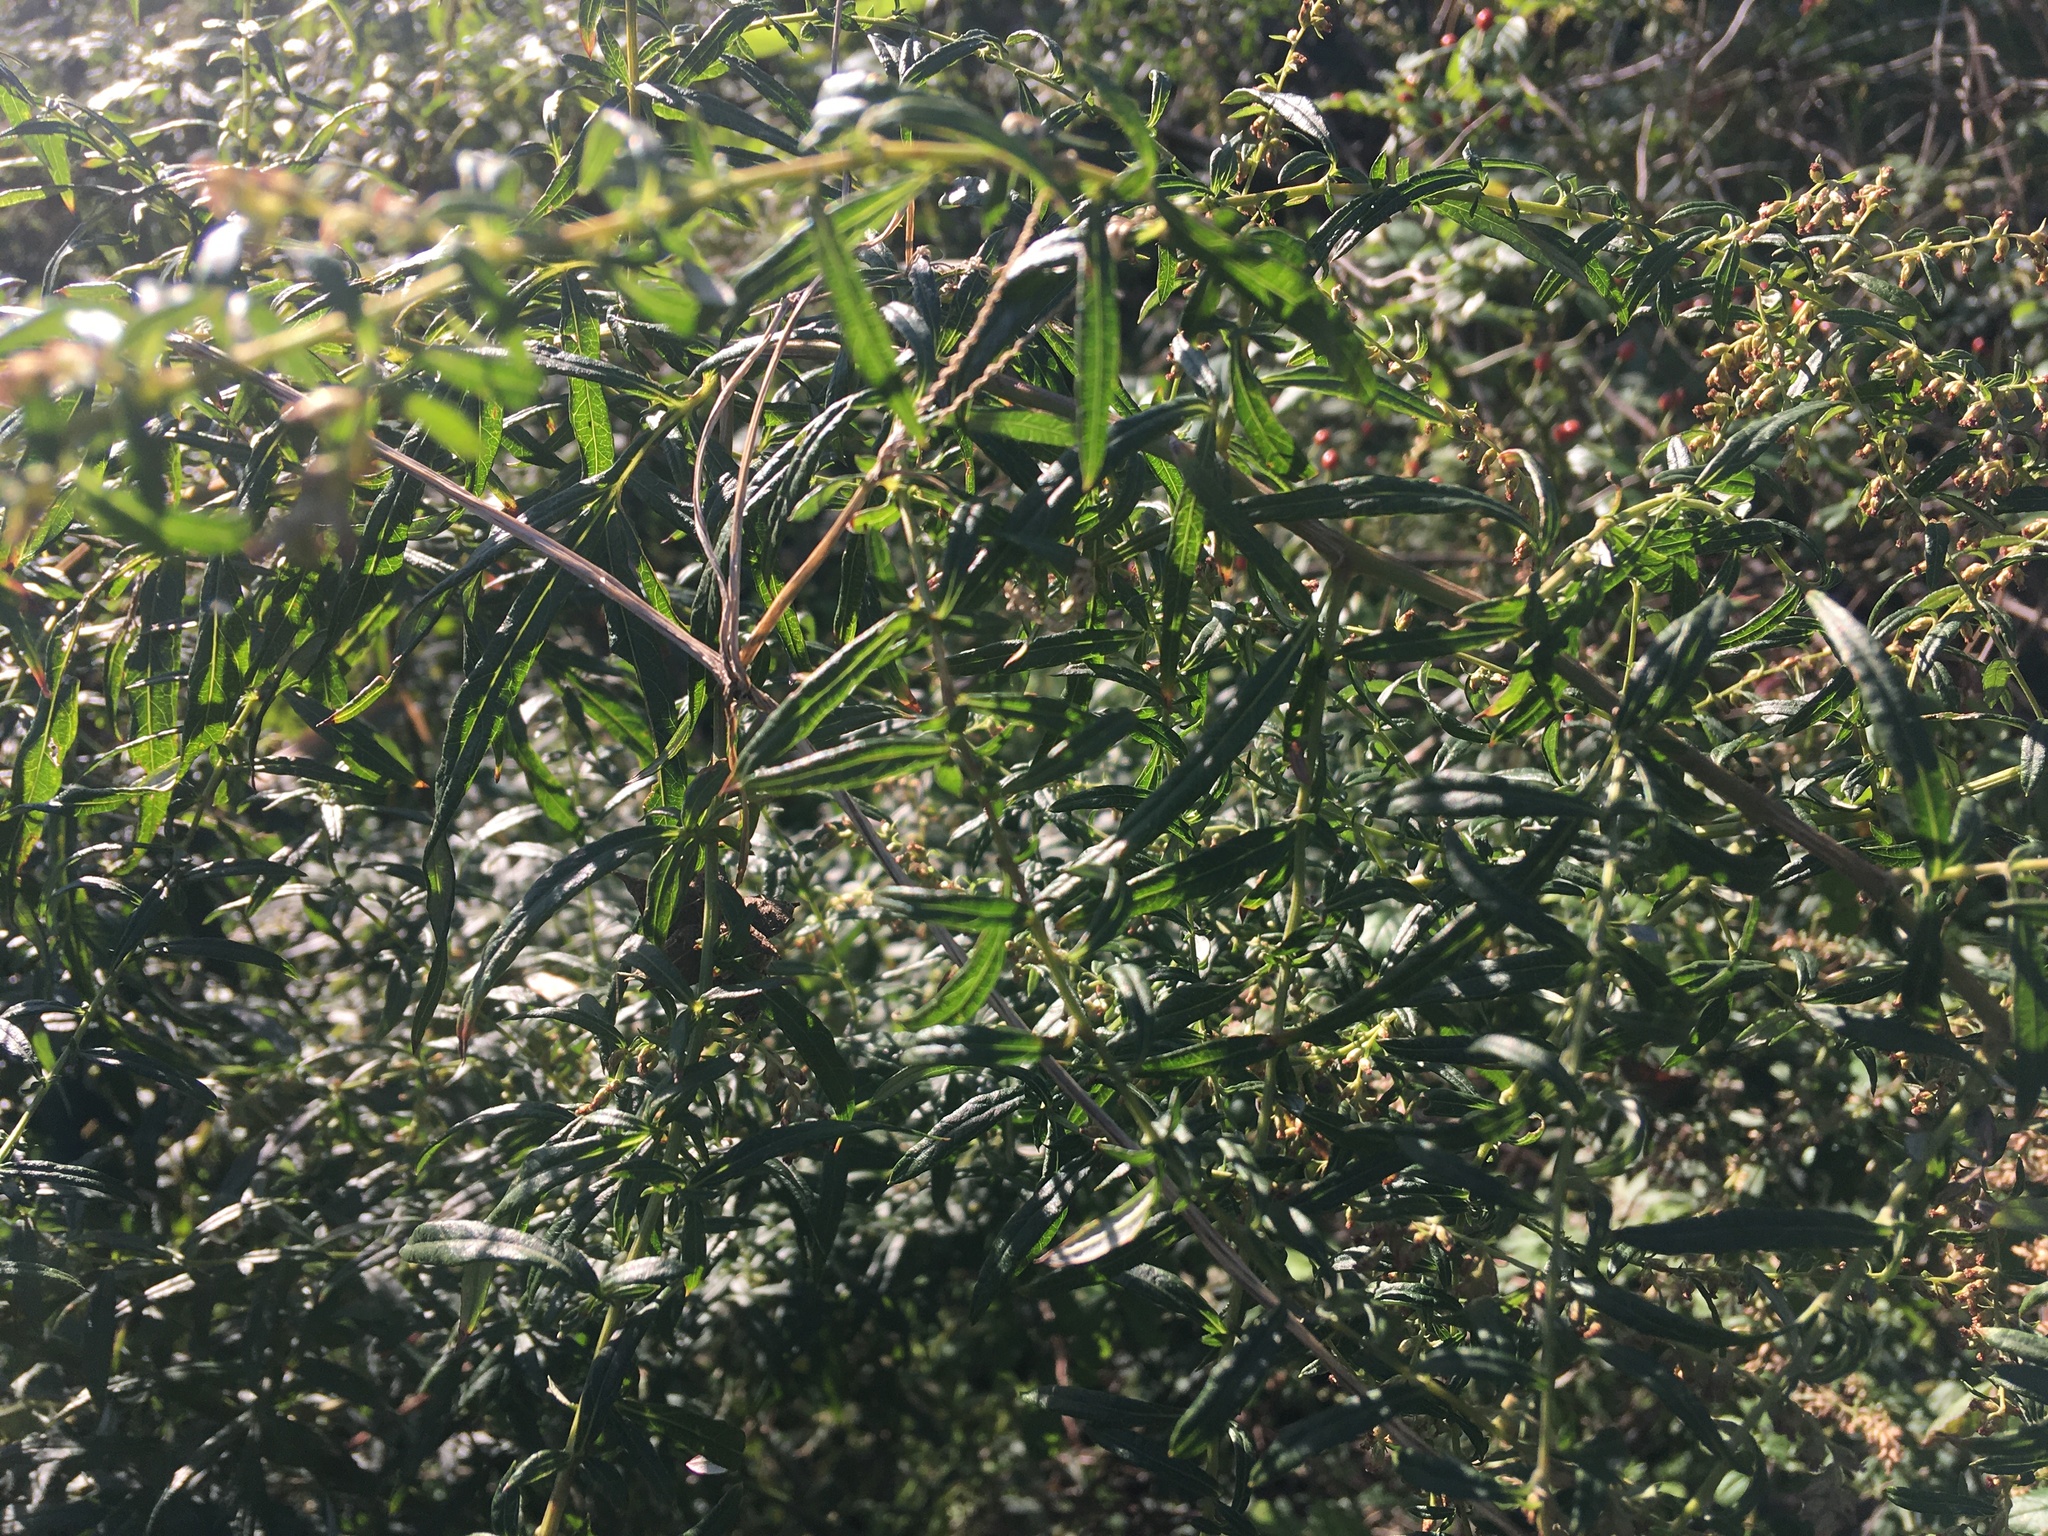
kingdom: Plantae
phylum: Tracheophyta
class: Magnoliopsida
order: Asterales
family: Asteraceae
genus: Artemisia
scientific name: Artemisia vulgaris
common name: Mugwort
